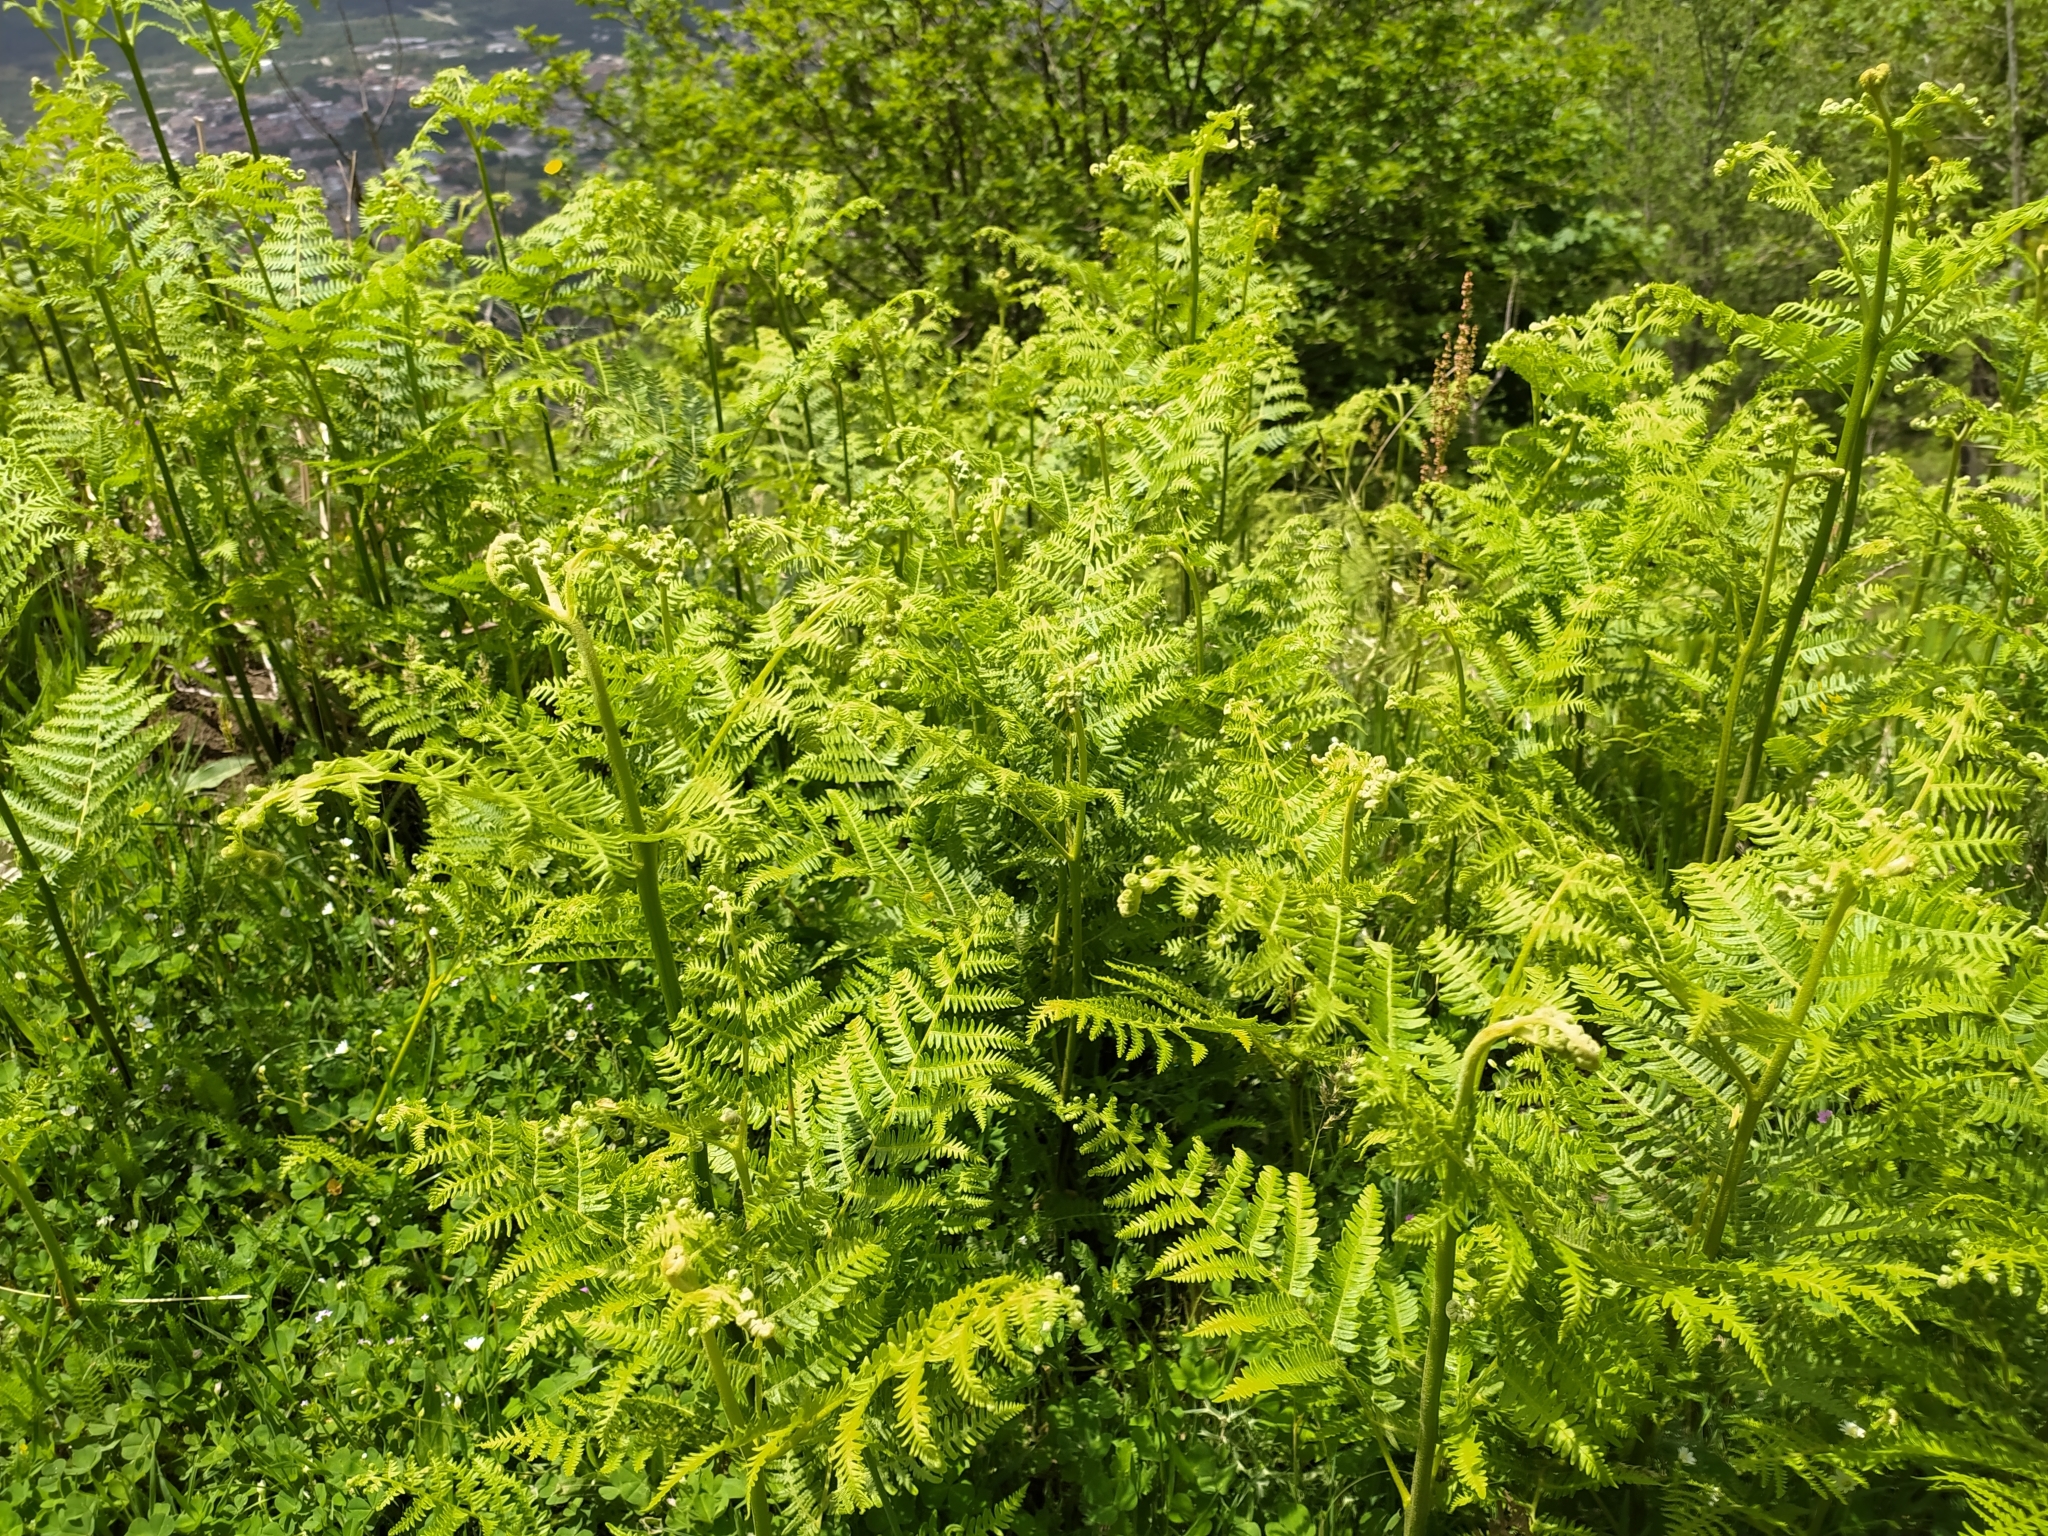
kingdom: Plantae
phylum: Tracheophyta
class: Polypodiopsida
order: Polypodiales
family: Dennstaedtiaceae
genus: Pteridium
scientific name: Pteridium aquilinum
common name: Bracken
